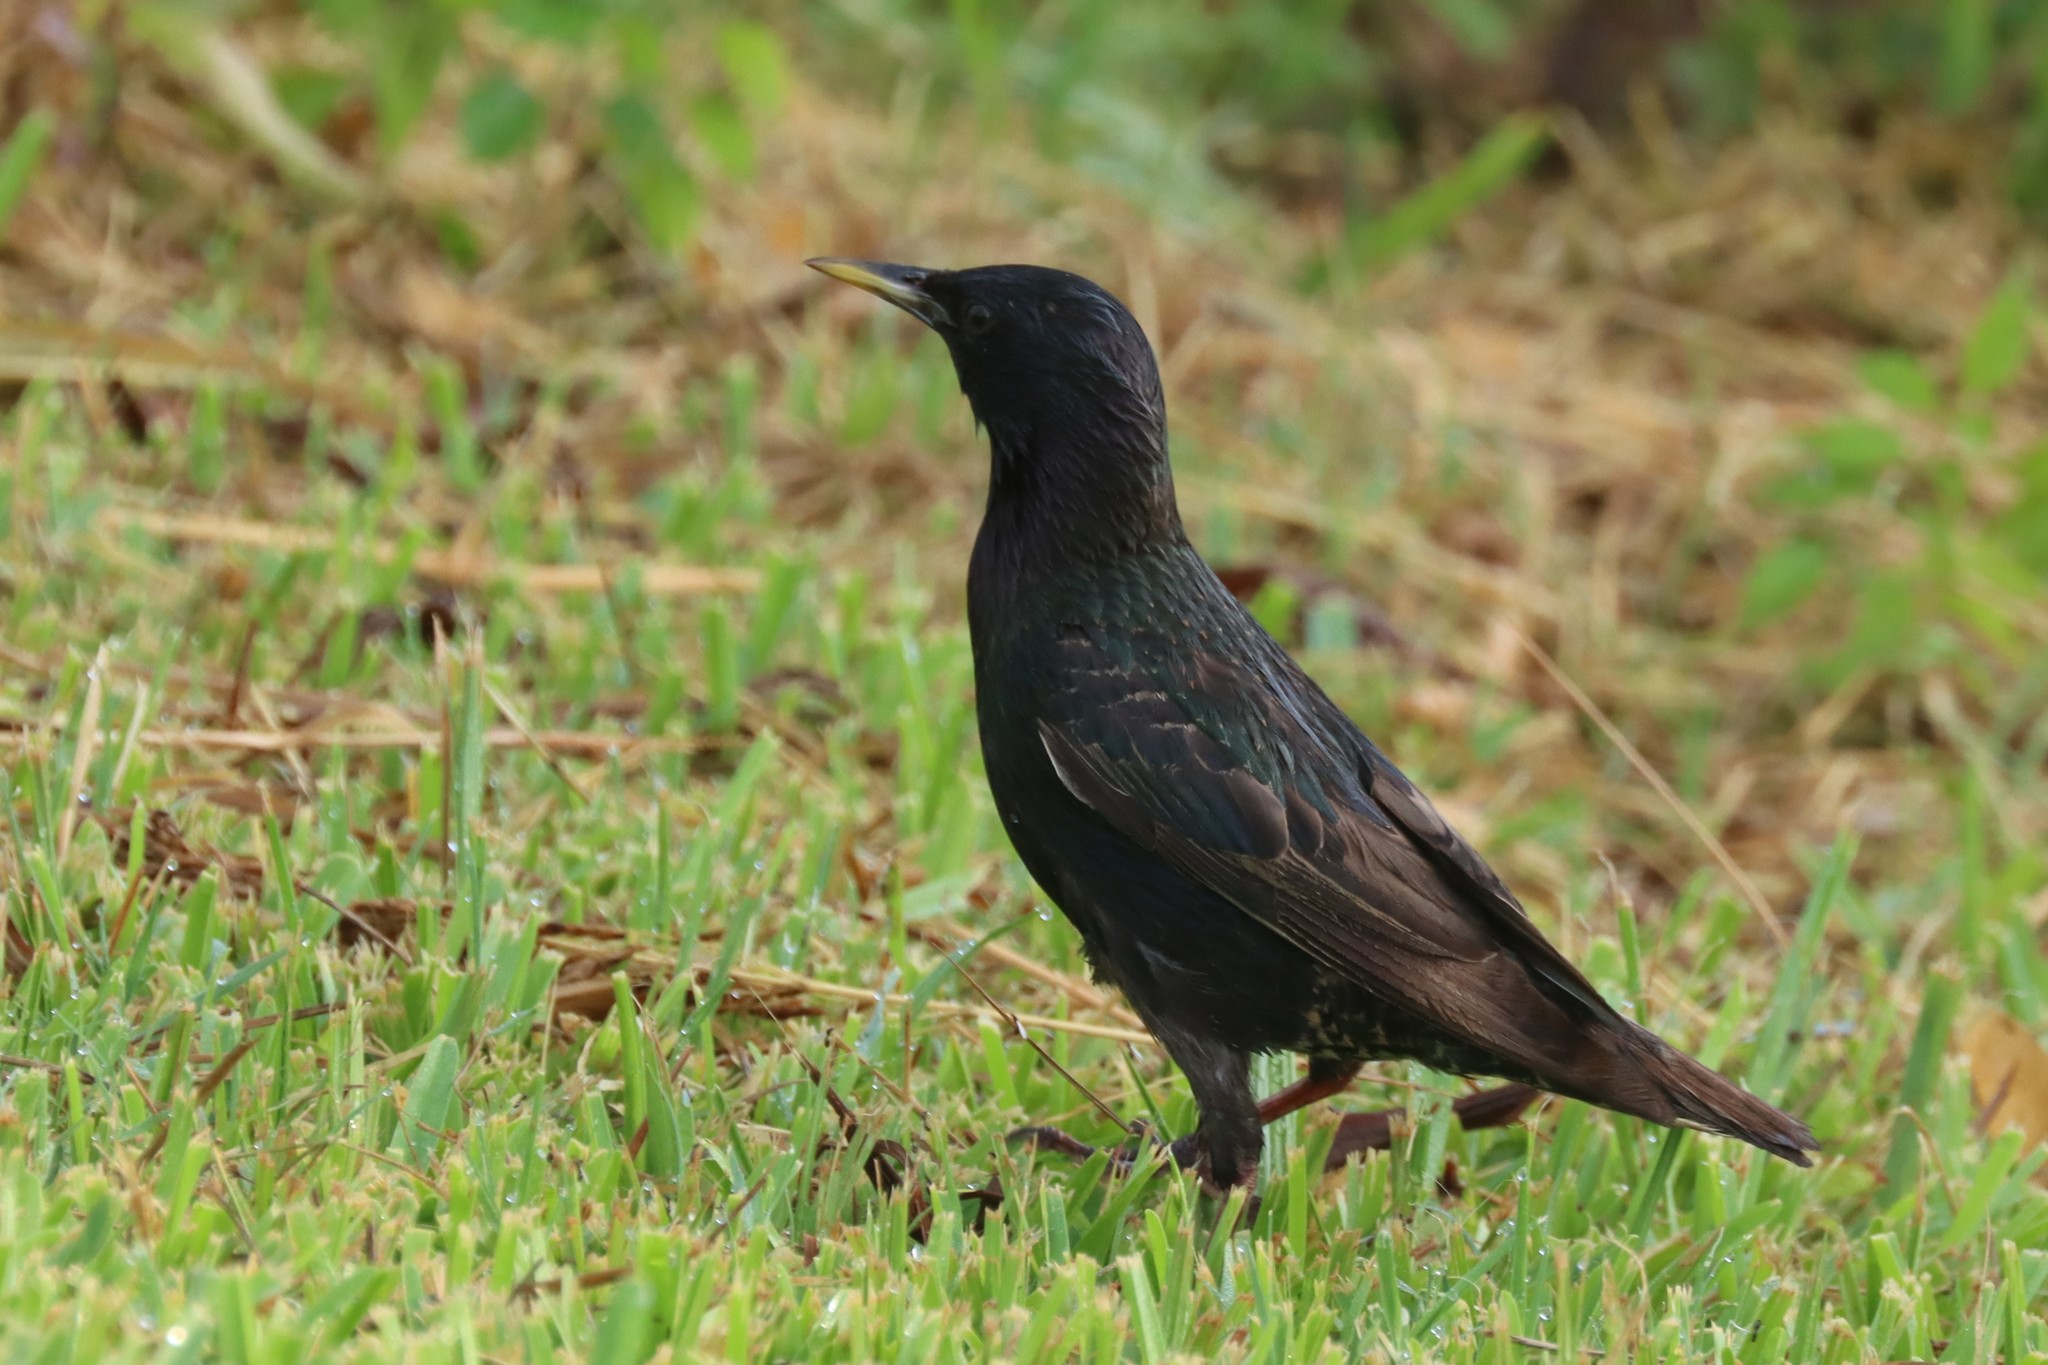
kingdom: Animalia
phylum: Chordata
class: Aves
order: Passeriformes
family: Sturnidae
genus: Sturnus
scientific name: Sturnus vulgaris
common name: Common starling
